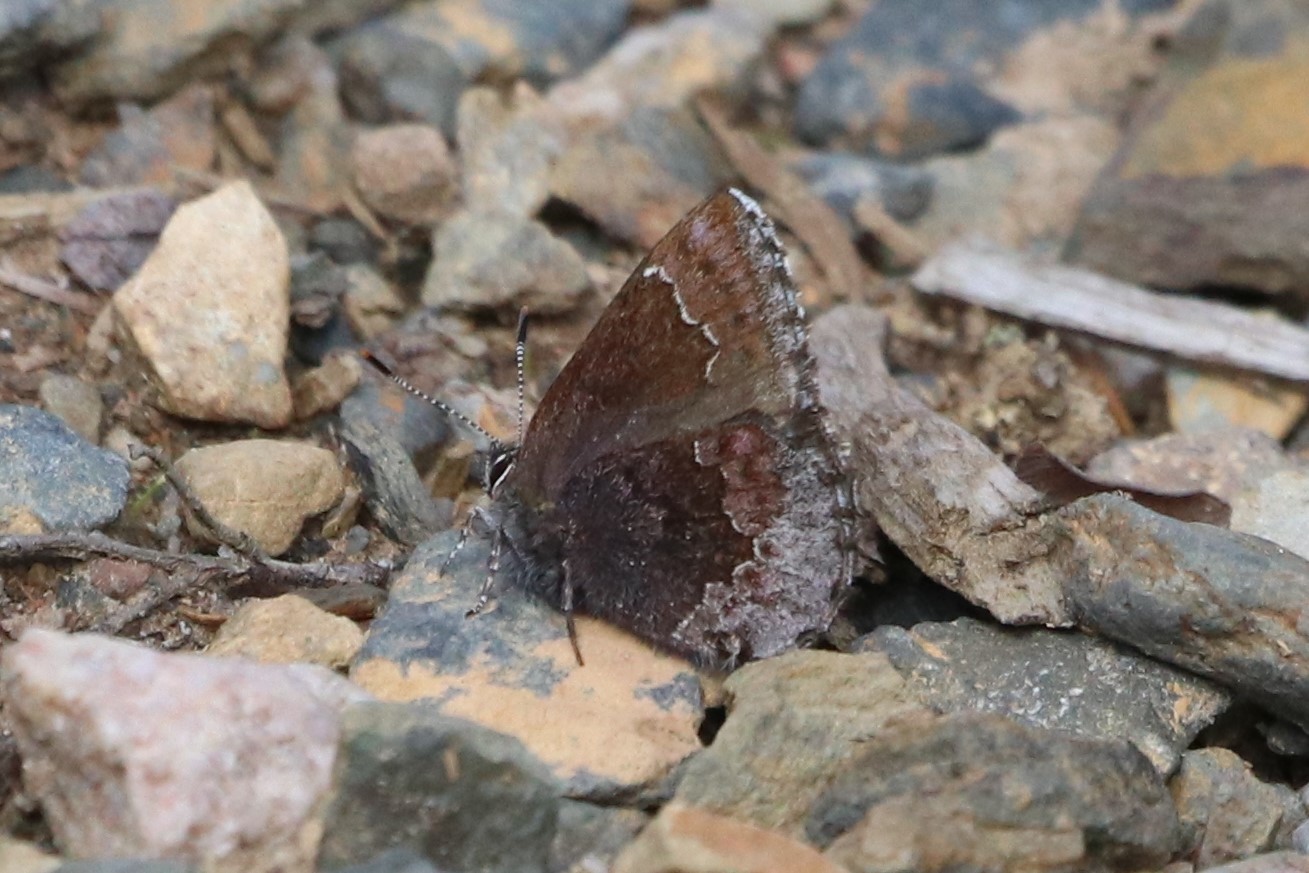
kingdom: Animalia
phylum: Arthropoda
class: Insecta
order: Lepidoptera
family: Lycaenidae
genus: Callophrys
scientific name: Callophrys polios
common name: Hoary elfin
